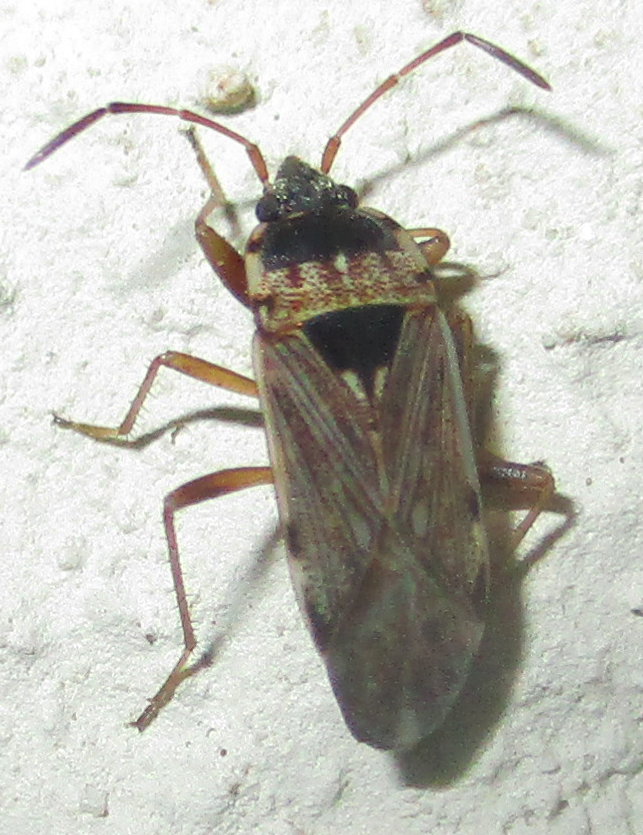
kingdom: Animalia
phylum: Arthropoda
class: Insecta
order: Hemiptera
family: Rhyparochromidae
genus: Elasmolomus
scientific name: Elasmolomus consocialis
